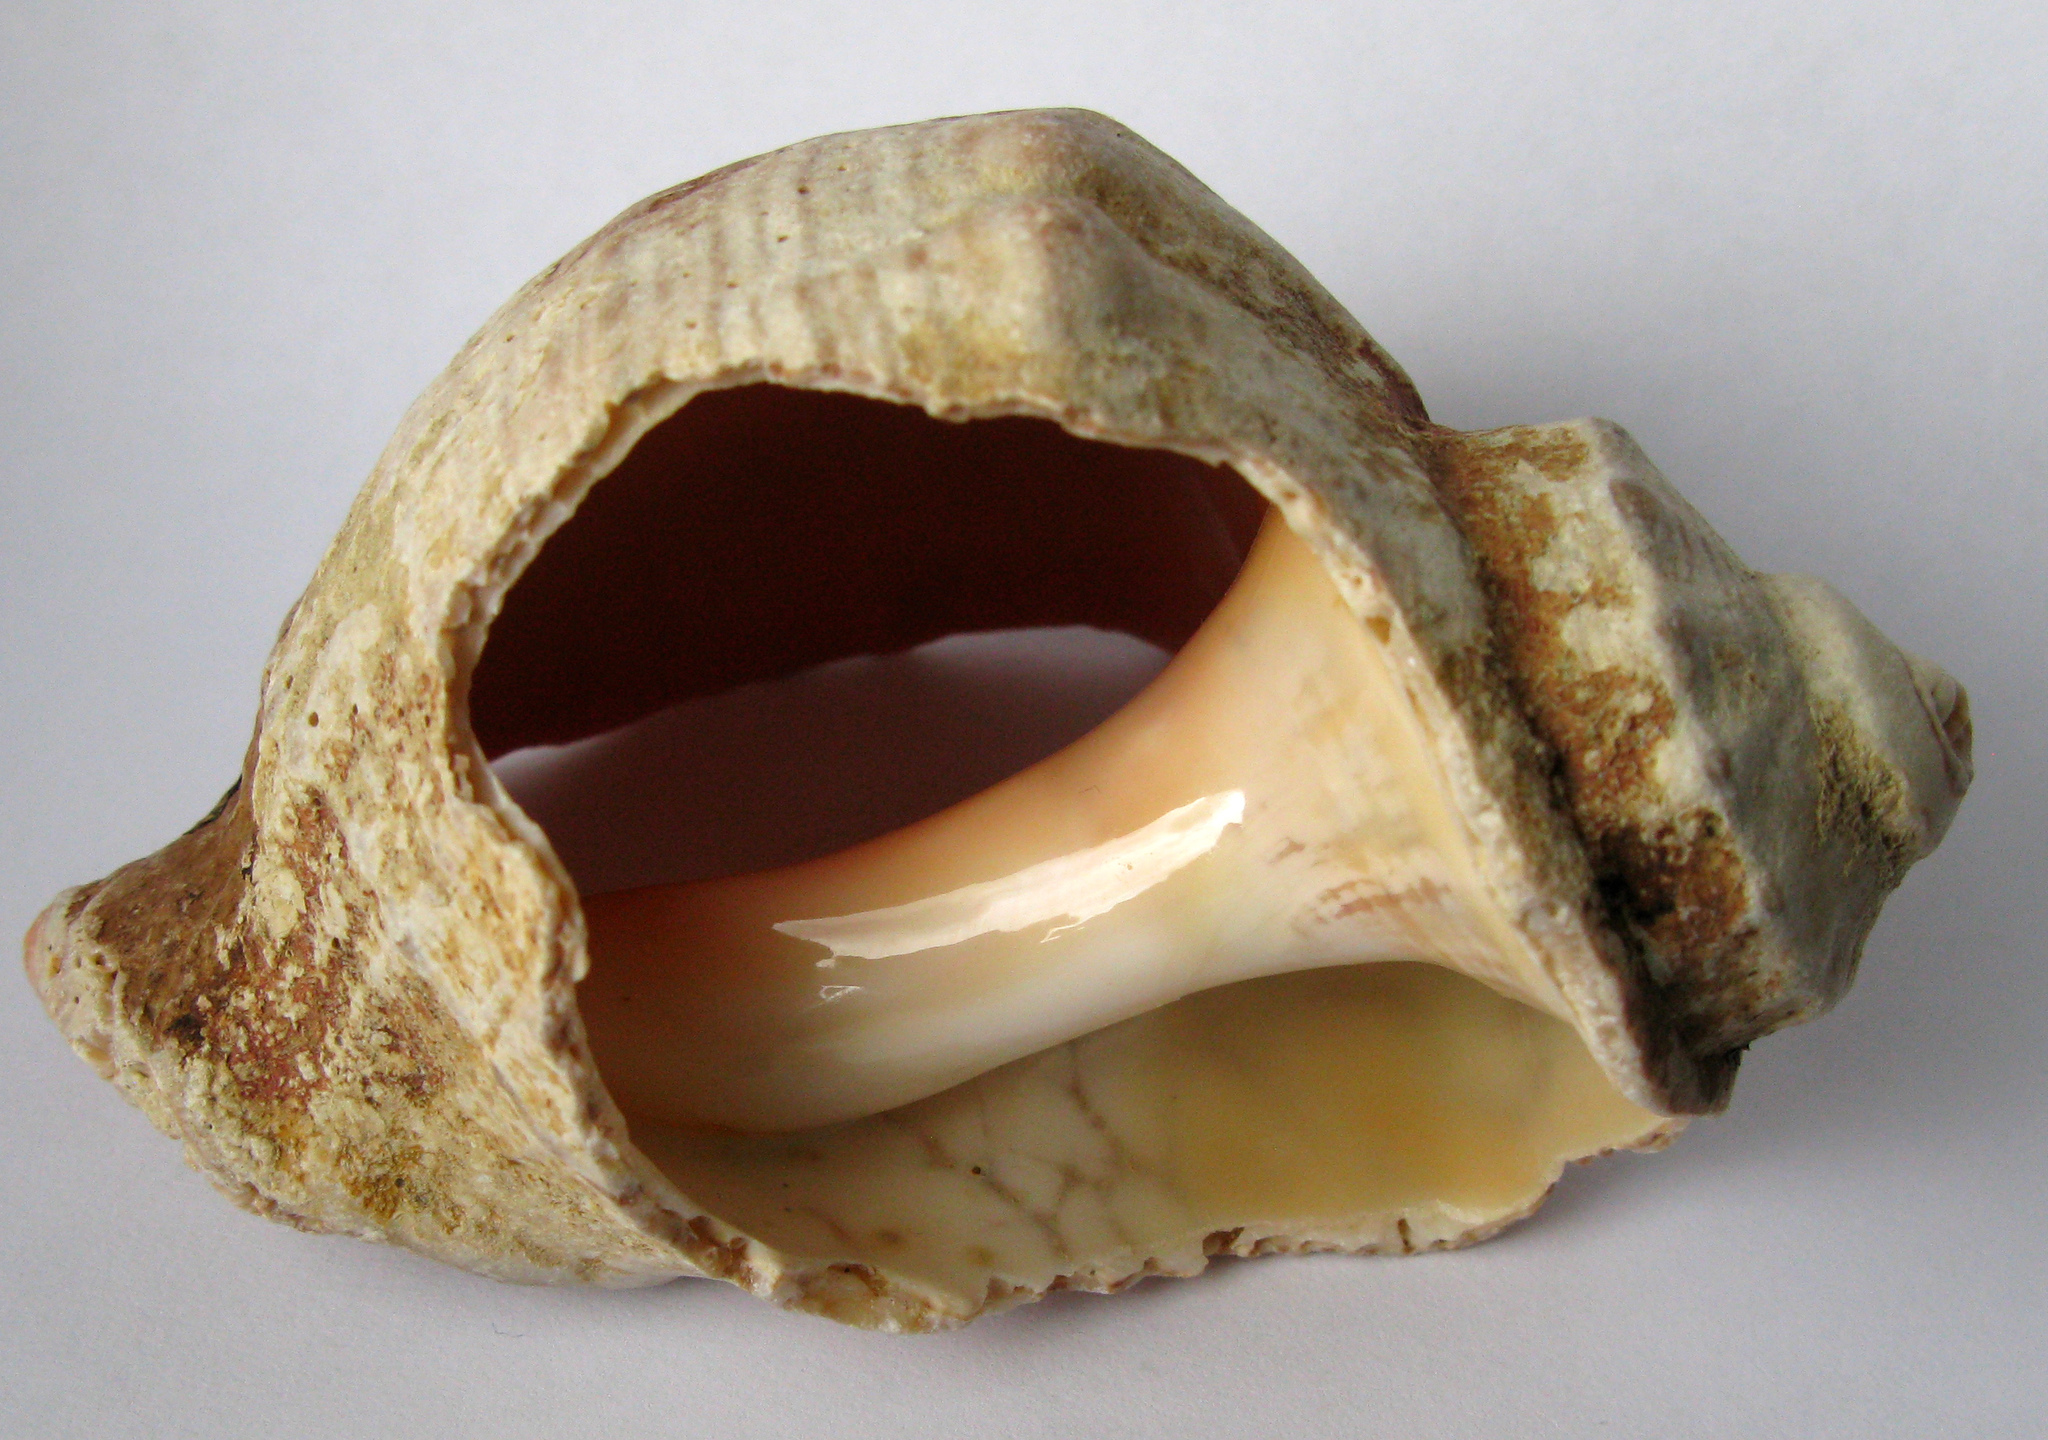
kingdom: Animalia
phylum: Mollusca
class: Gastropoda
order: Neogastropoda
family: Muricidae
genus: Rapana
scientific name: Rapana venosa
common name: Veined rapa whelk
